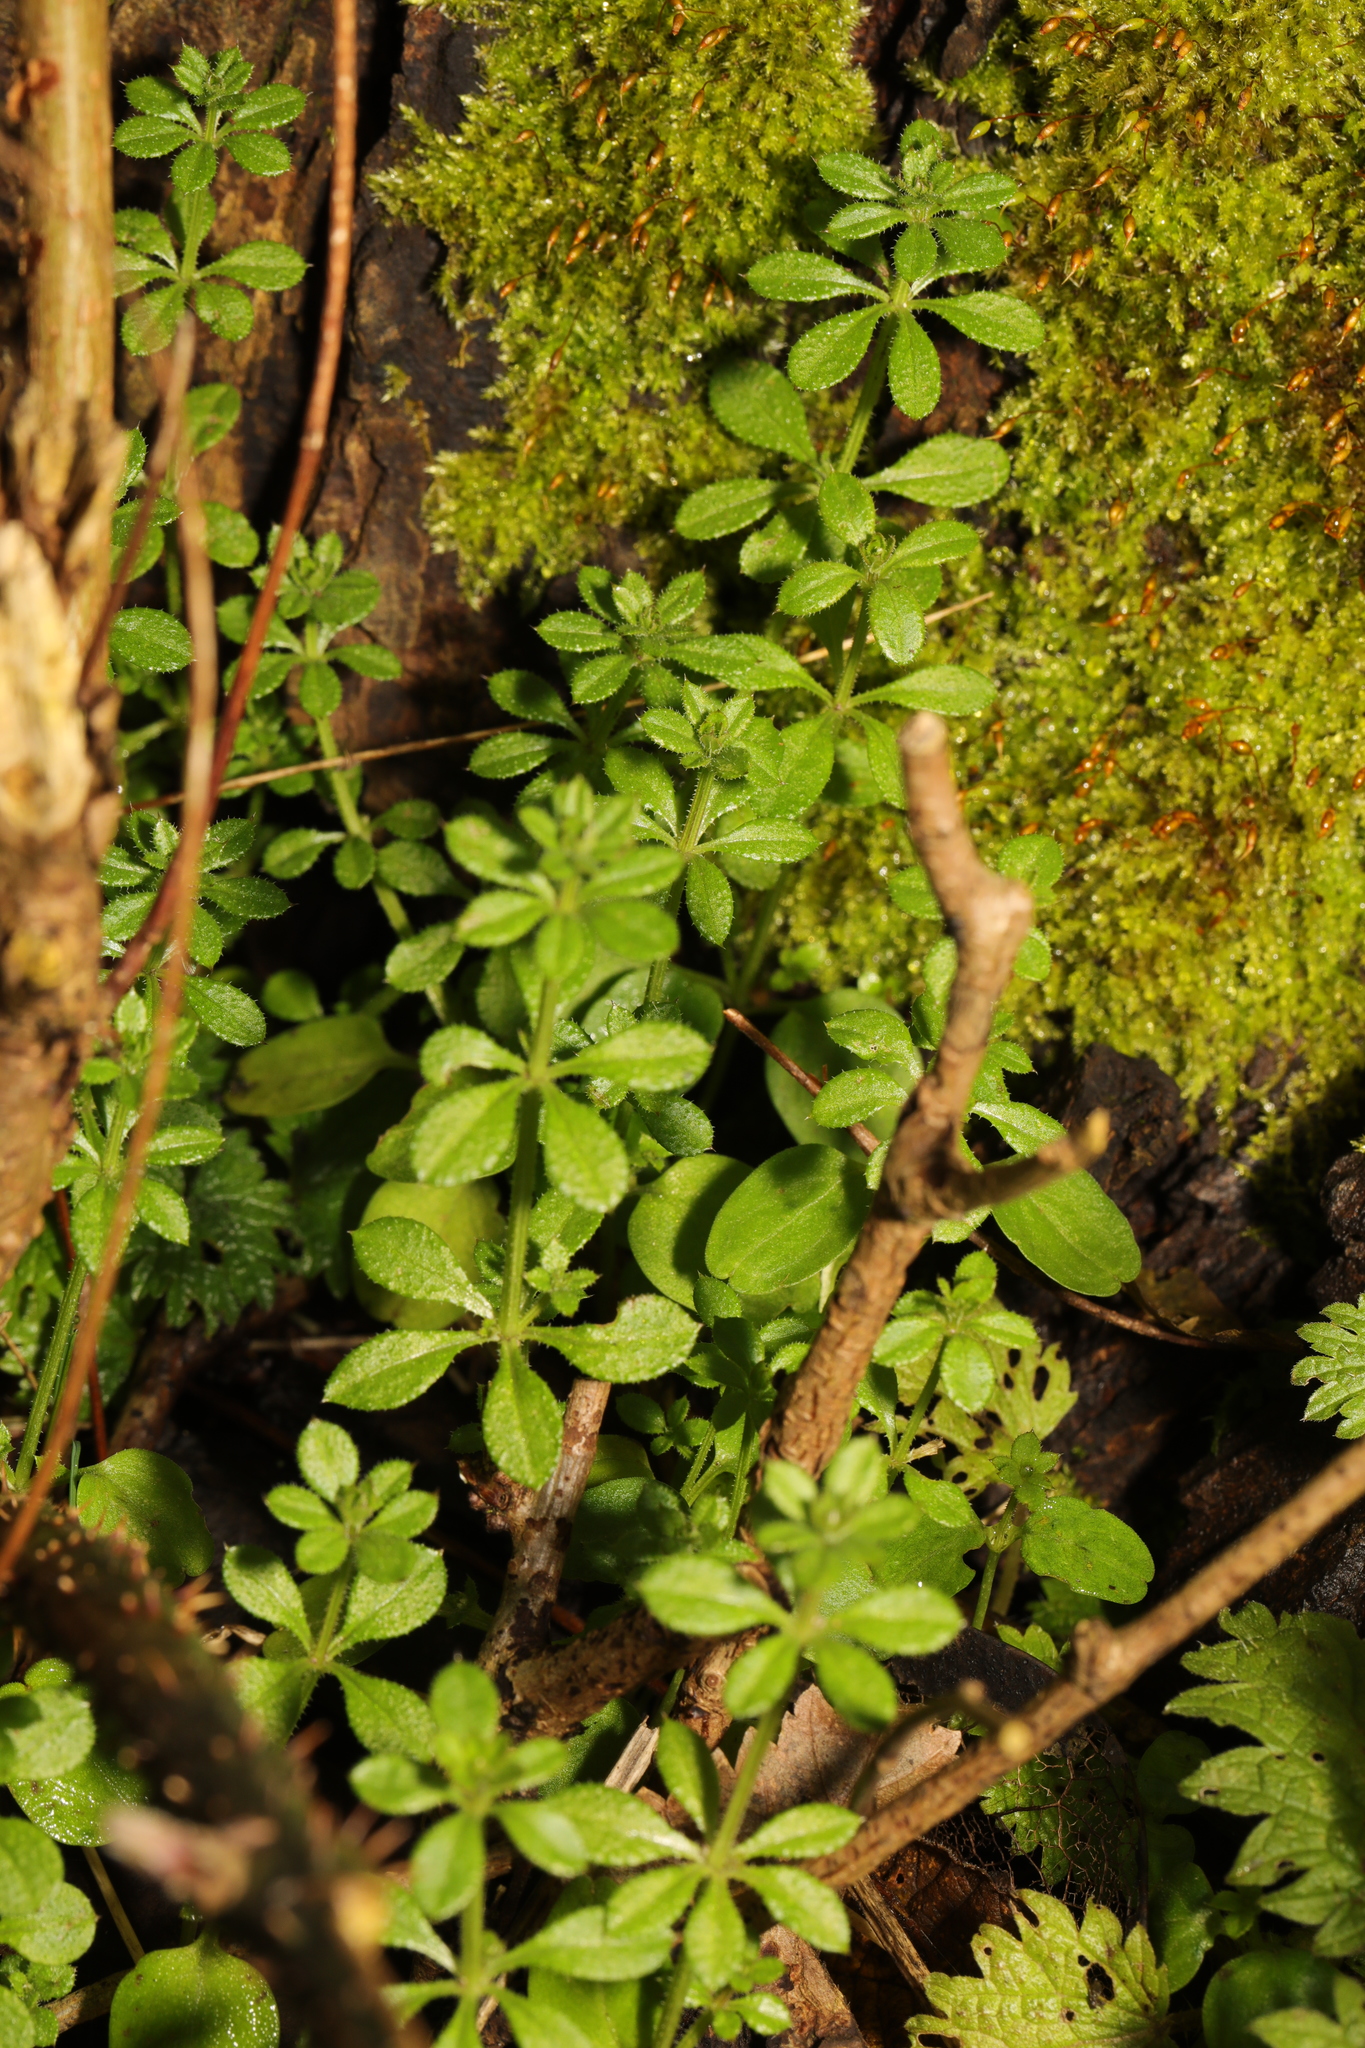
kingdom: Plantae
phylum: Tracheophyta
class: Magnoliopsida
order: Gentianales
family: Rubiaceae
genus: Galium
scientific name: Galium aparine
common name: Cleavers
